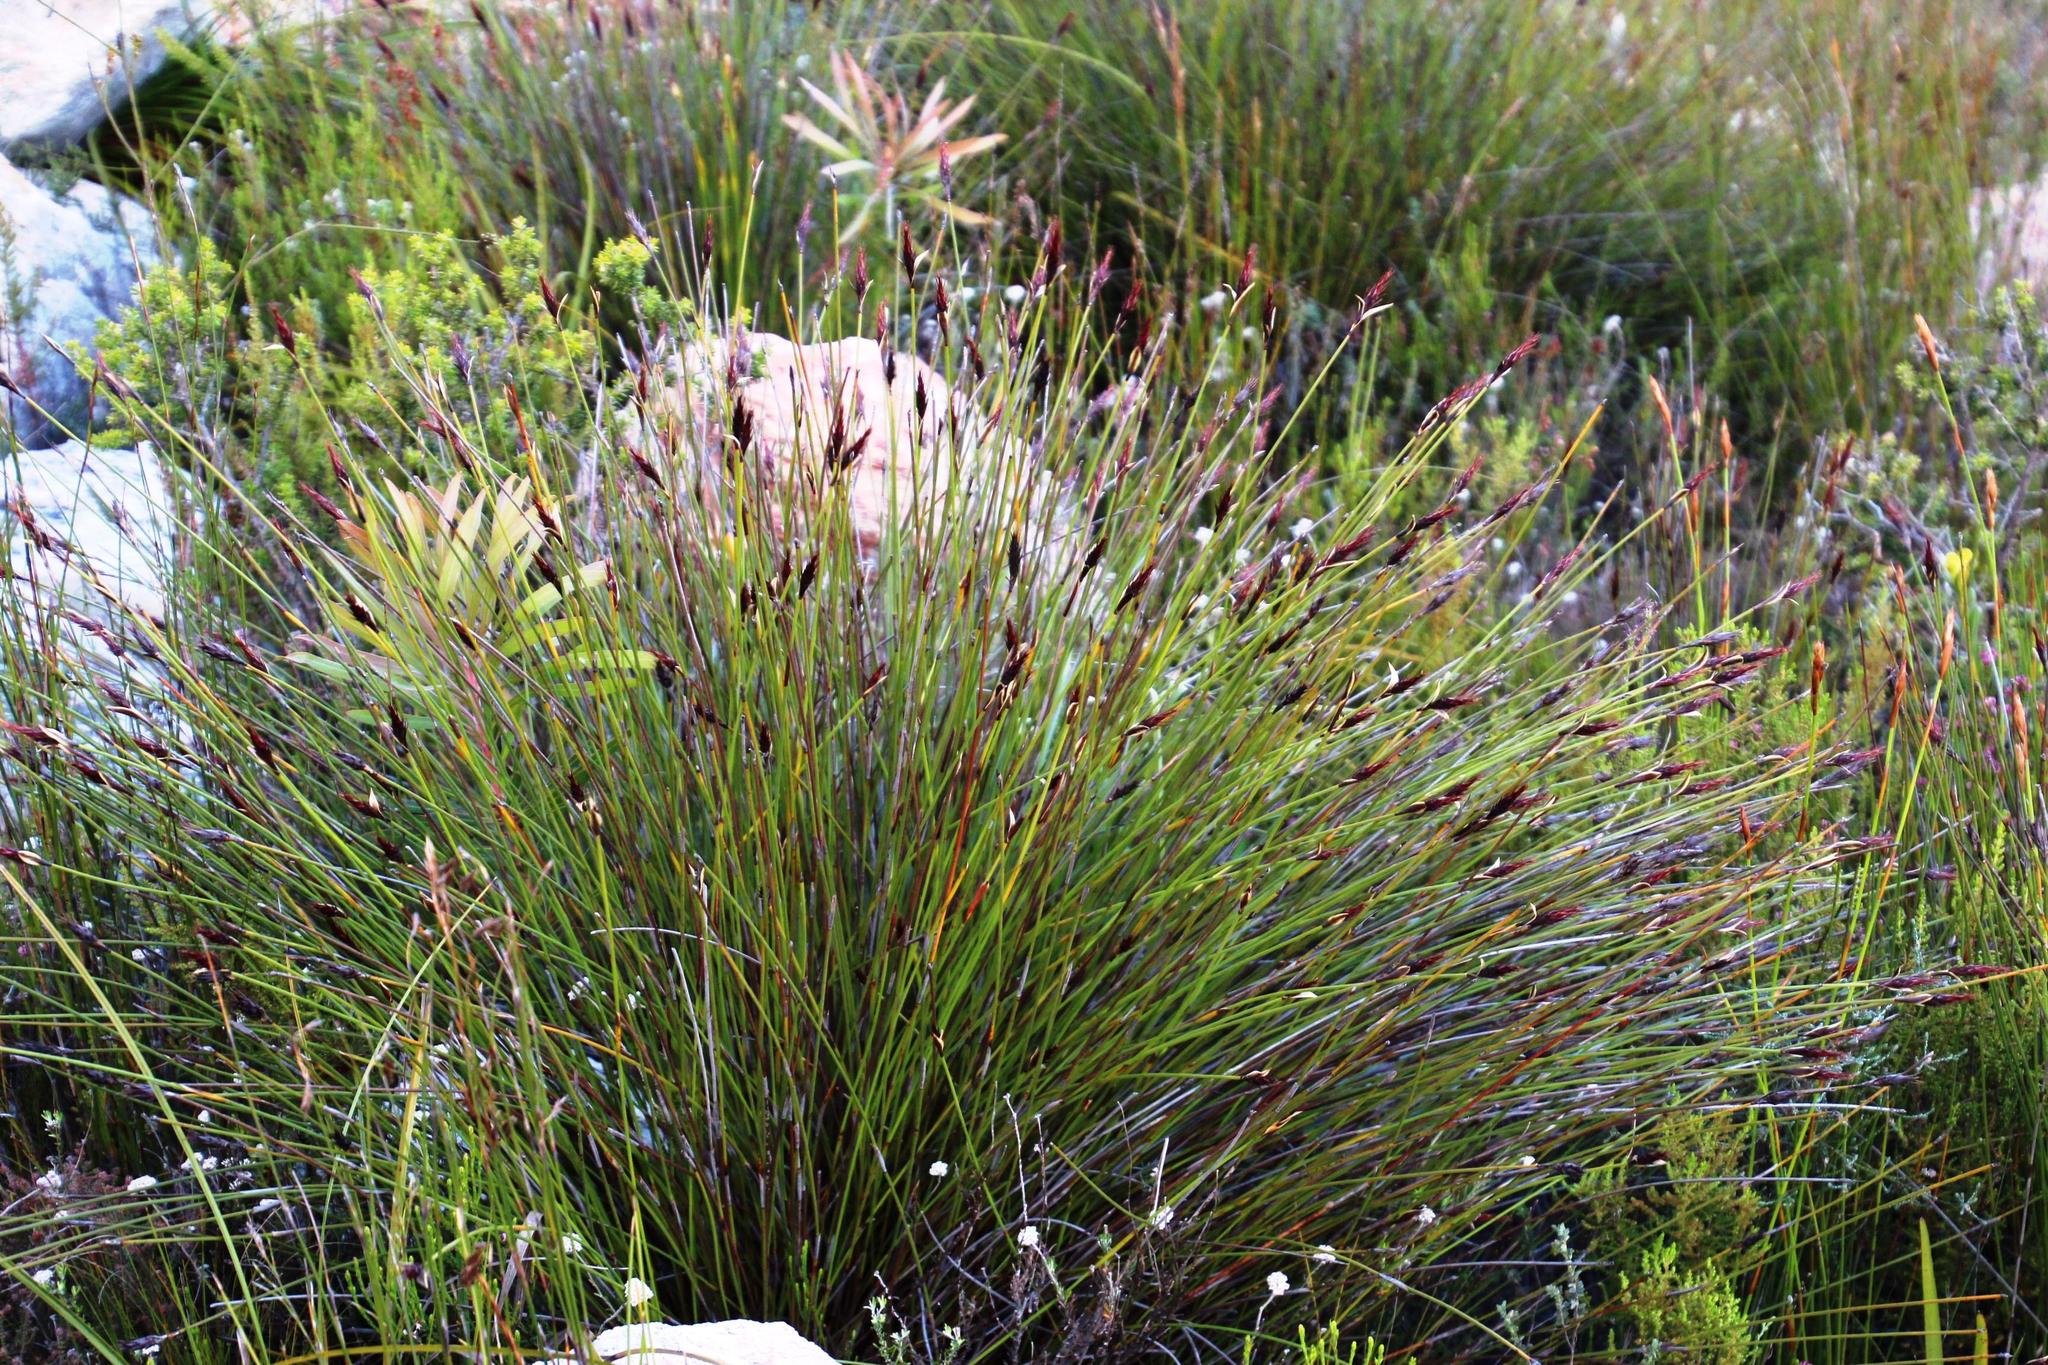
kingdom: Plantae
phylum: Tracheophyta
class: Liliopsida
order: Poales
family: Restionaceae
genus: Hypodiscus
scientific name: Hypodiscus aristatus
